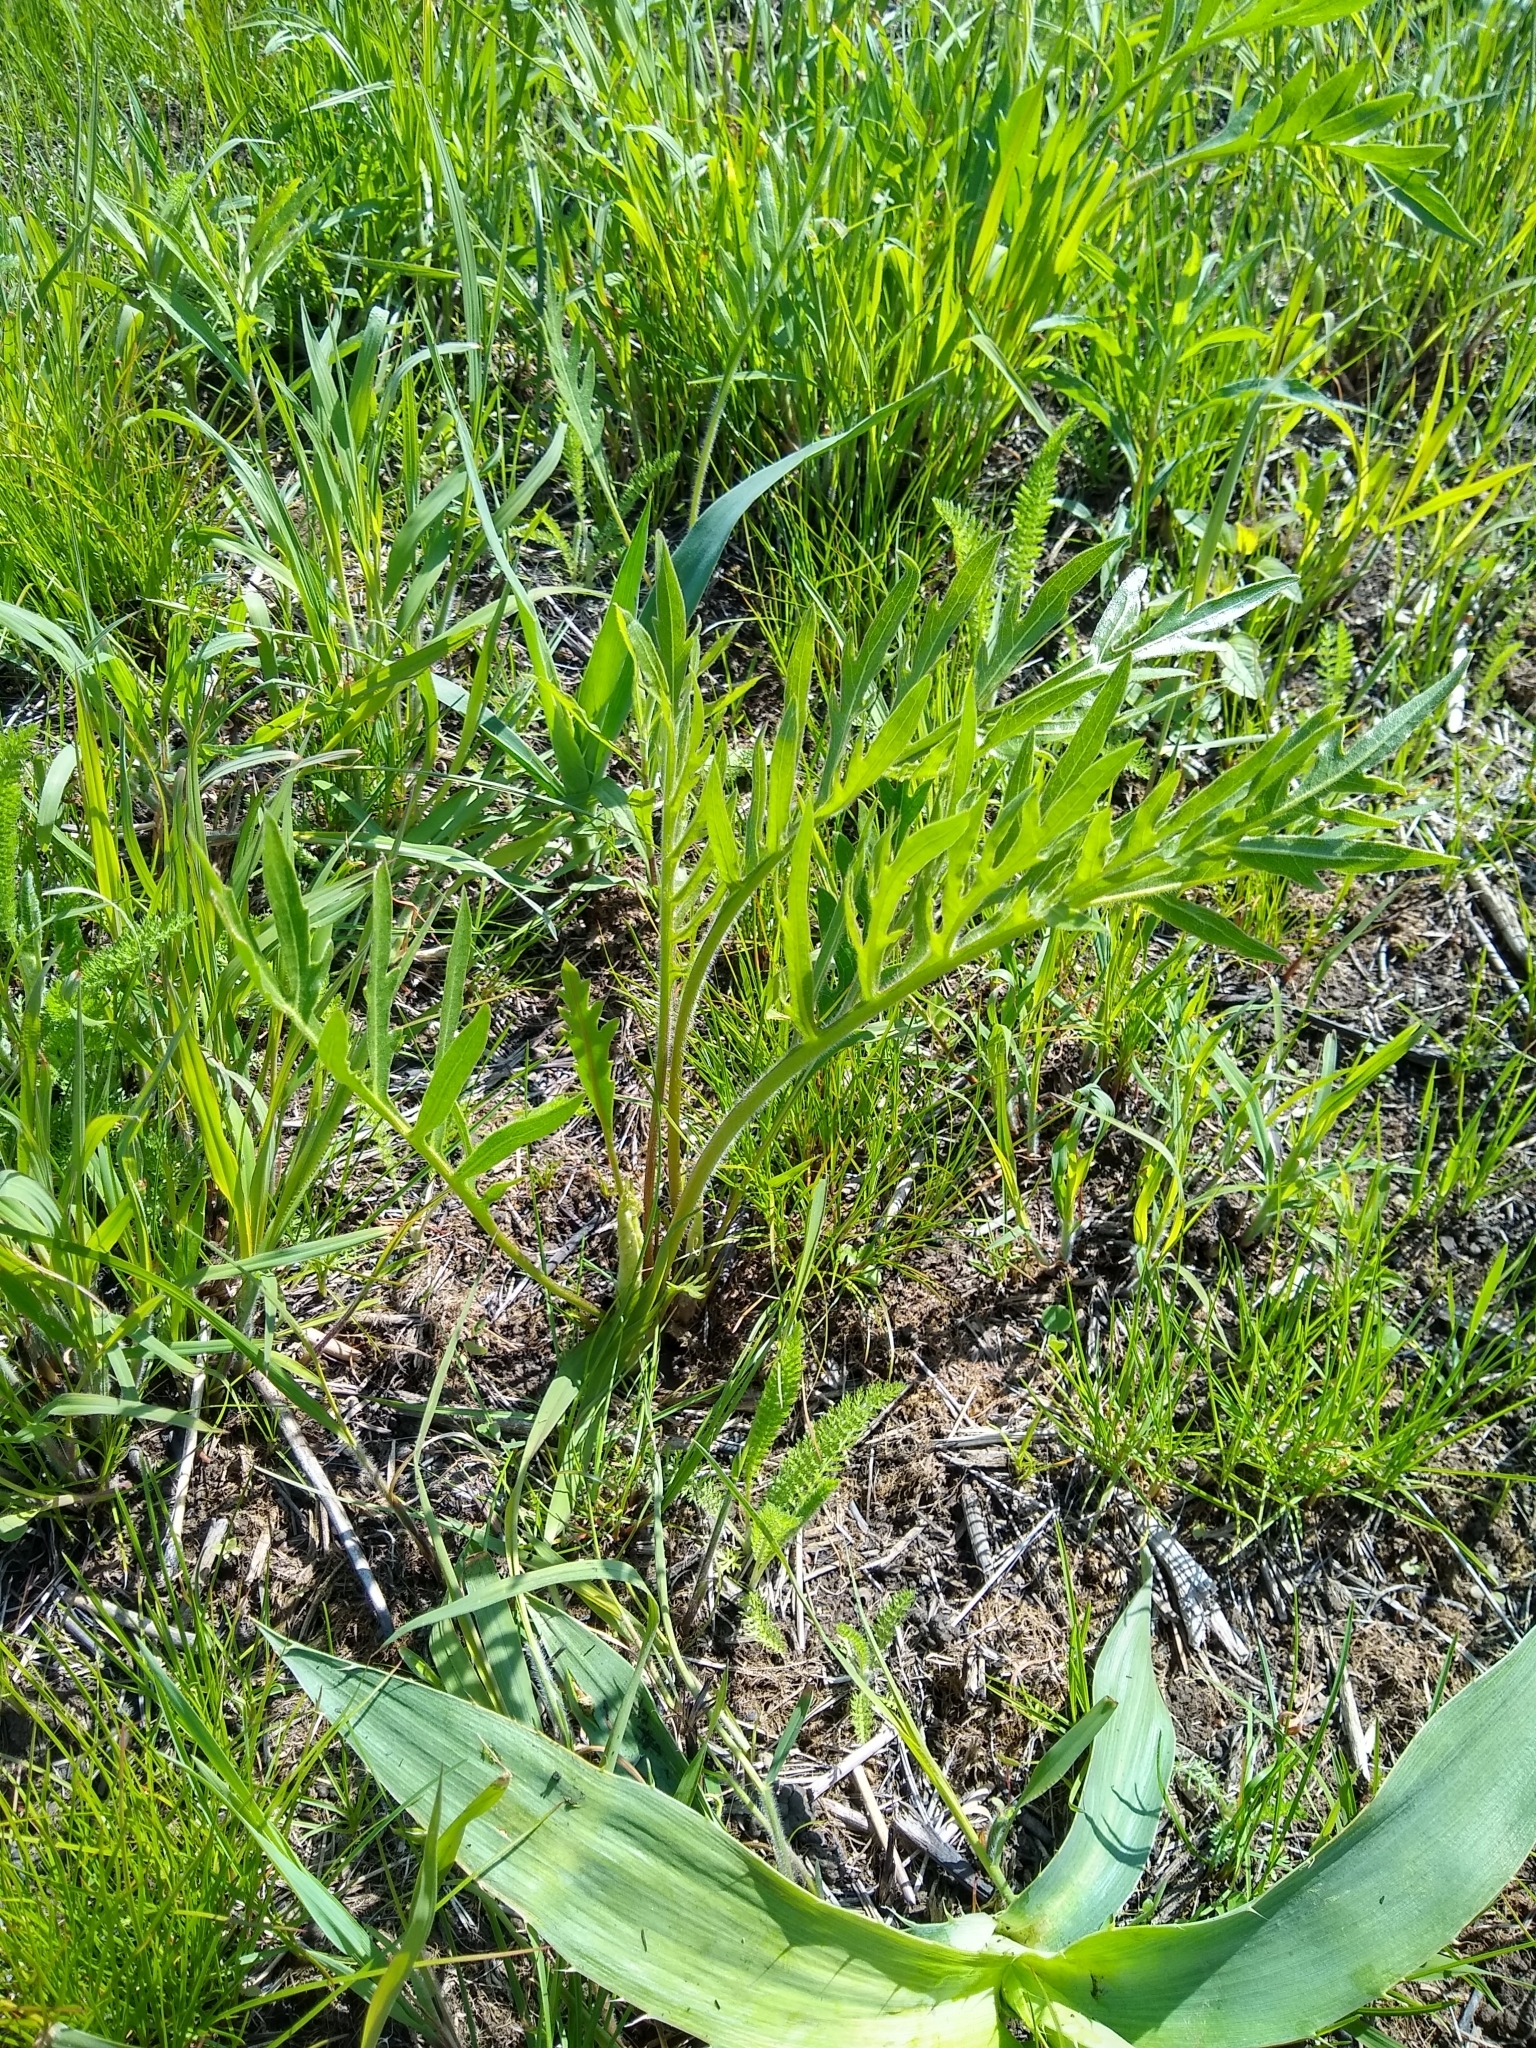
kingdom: Plantae
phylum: Tracheophyta
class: Magnoliopsida
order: Asterales
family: Asteraceae
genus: Silphium
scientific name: Silphium laciniatum
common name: Polarplant
